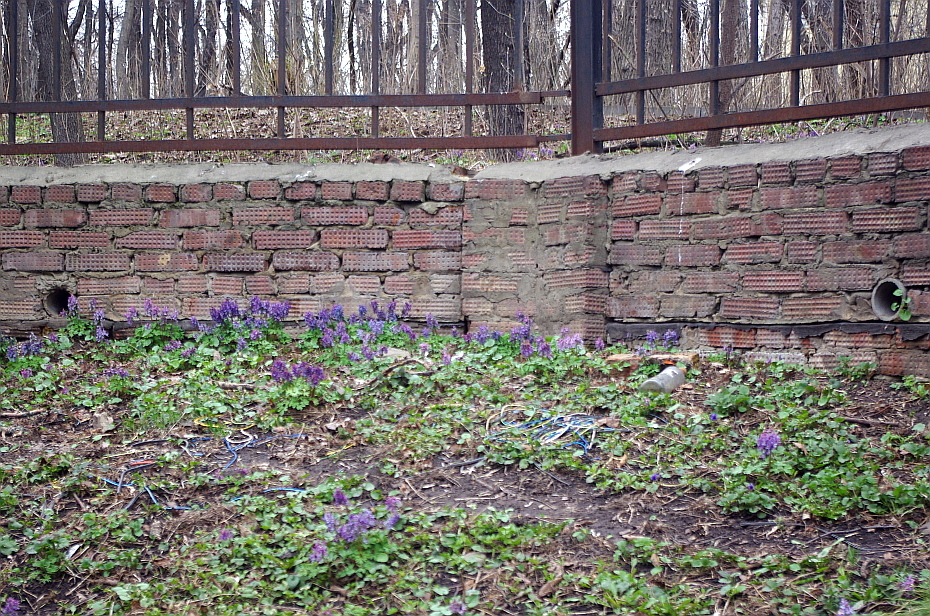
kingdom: Plantae
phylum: Tracheophyta
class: Magnoliopsida
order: Ranunculales
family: Papaveraceae
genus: Corydalis
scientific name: Corydalis solida
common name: Bird-in-a-bush
